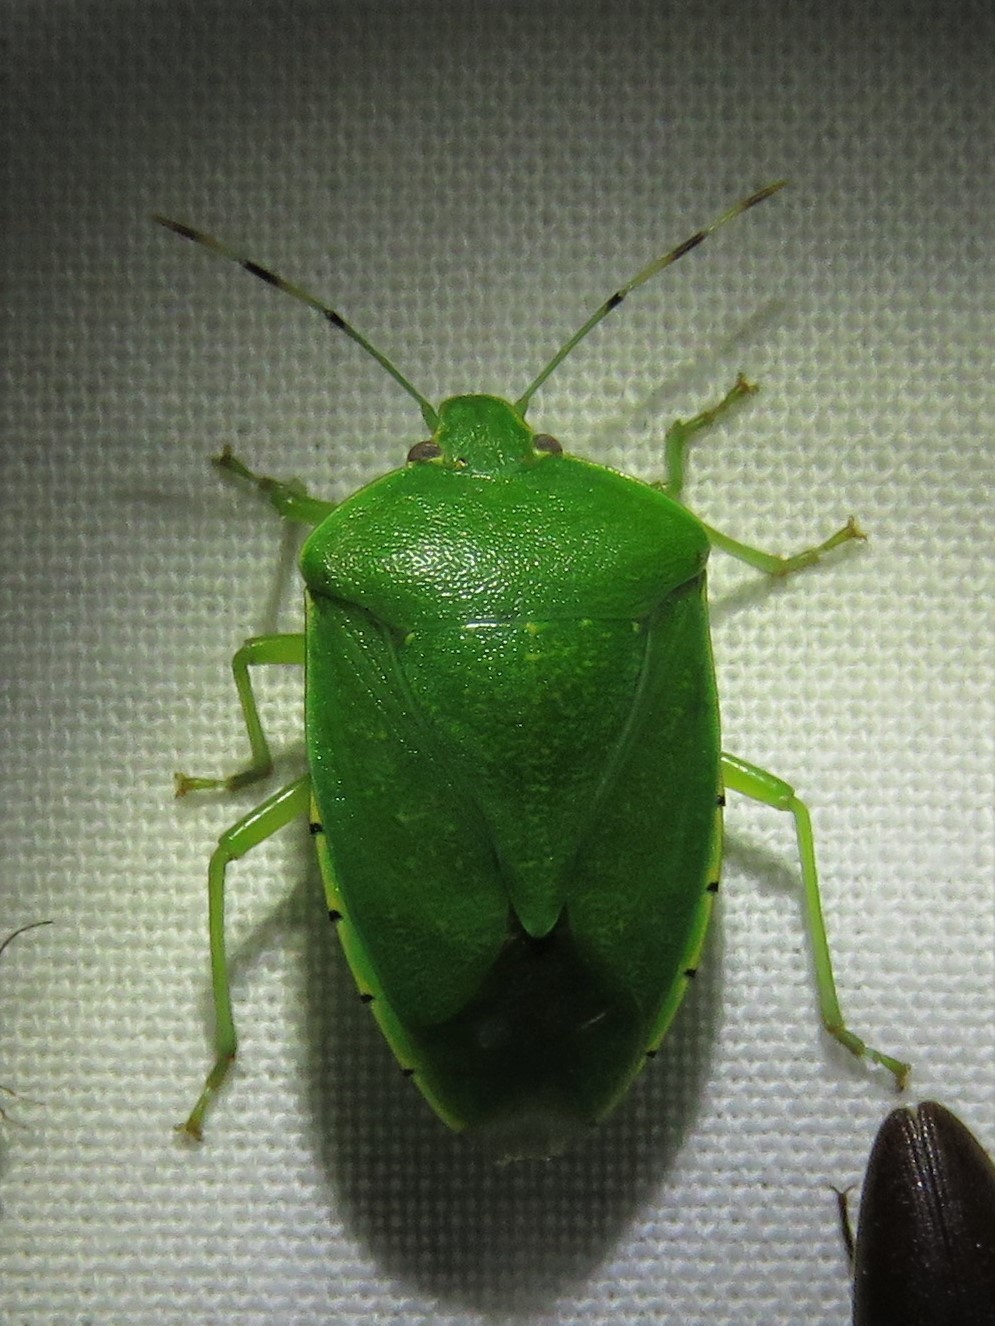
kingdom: Animalia
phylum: Arthropoda
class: Insecta
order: Hemiptera
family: Pentatomidae
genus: Chinavia
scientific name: Chinavia hilaris
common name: Green stink bug
